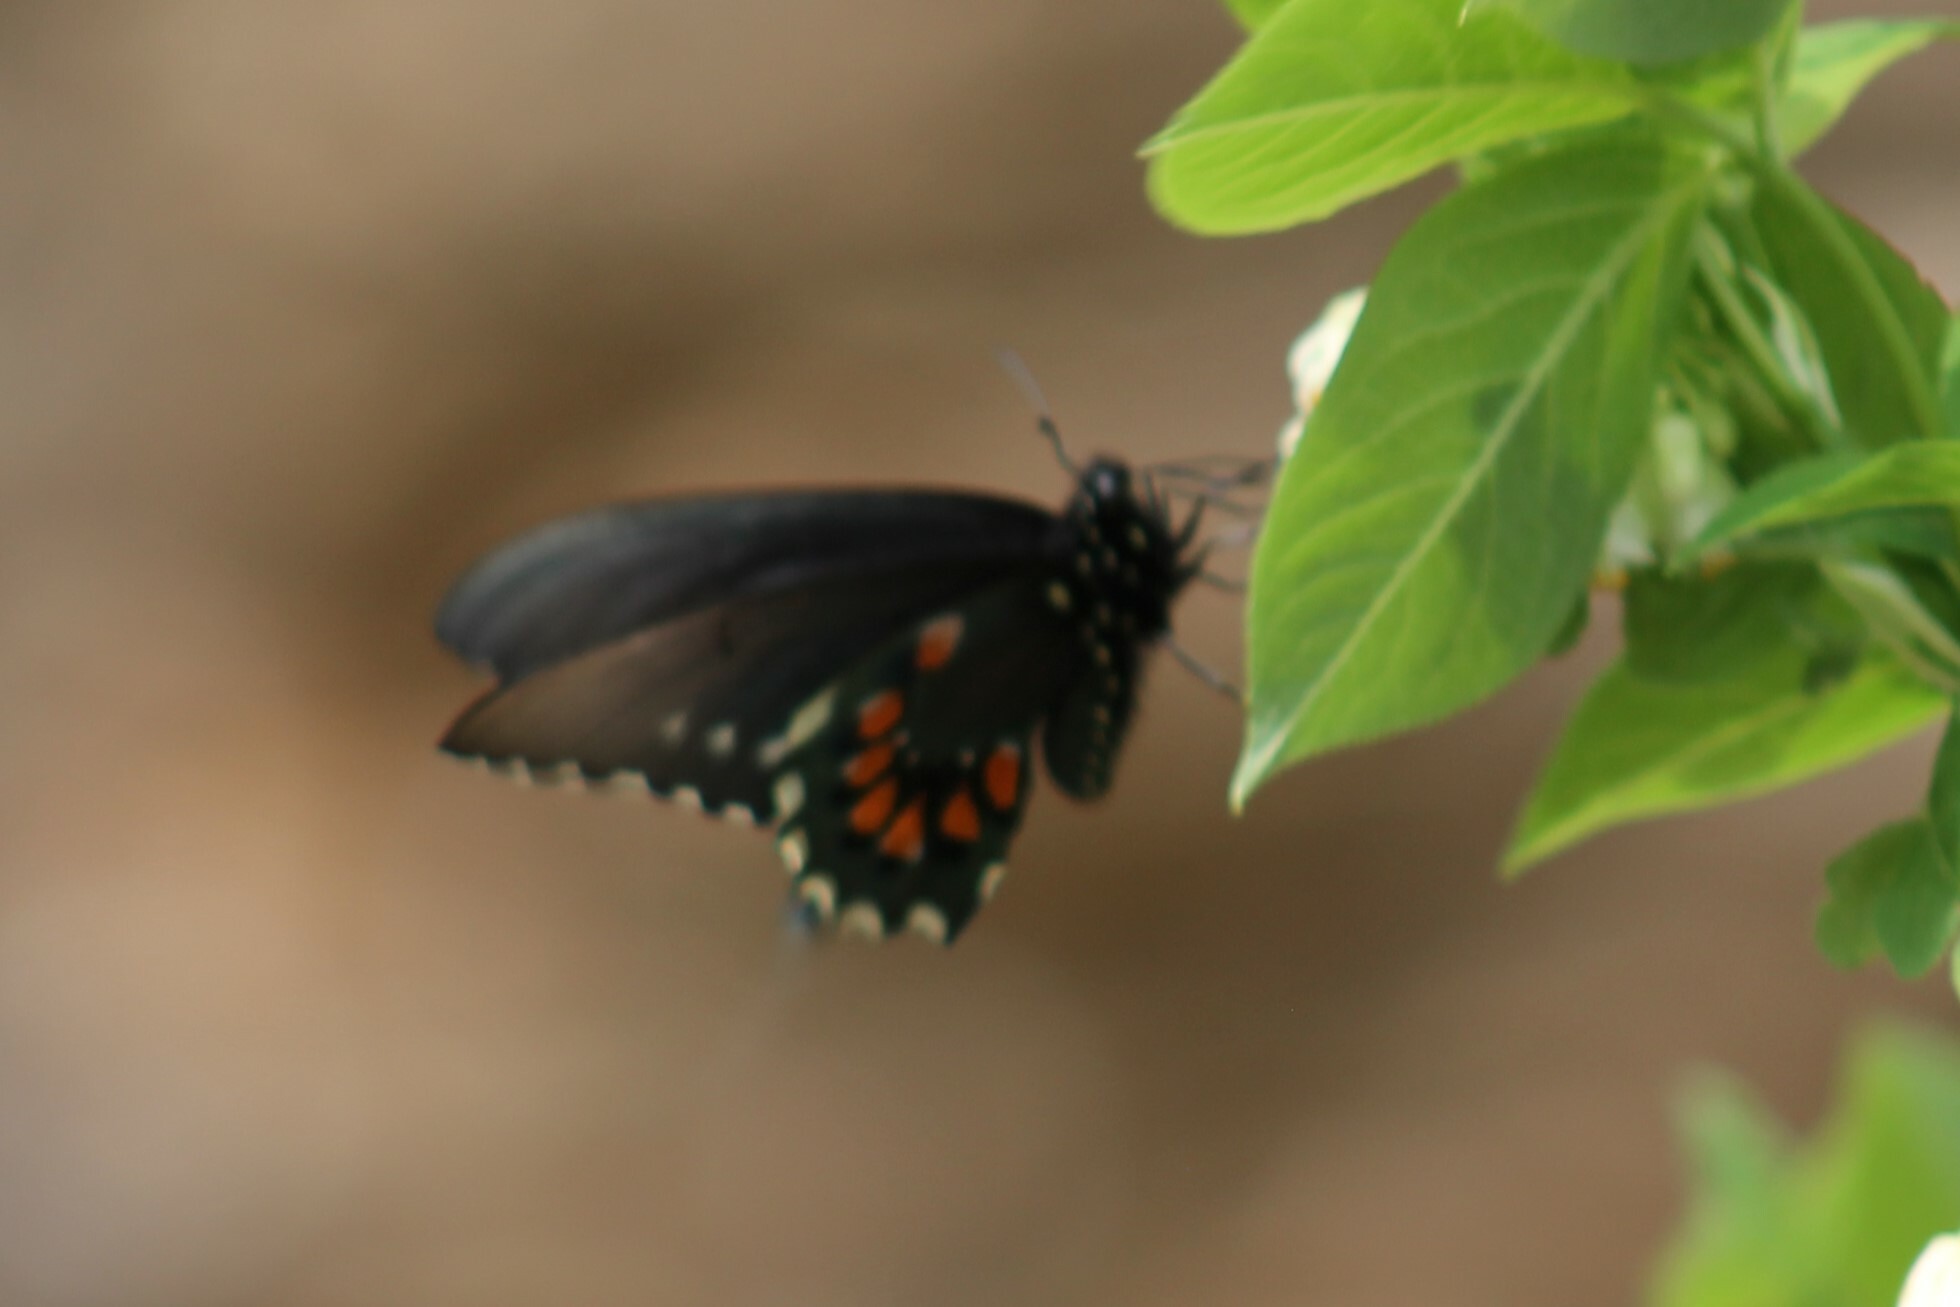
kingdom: Animalia
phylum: Arthropoda
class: Insecta
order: Lepidoptera
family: Papilionidae
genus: Battus
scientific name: Battus philenor
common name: Pipevine swallowtail
